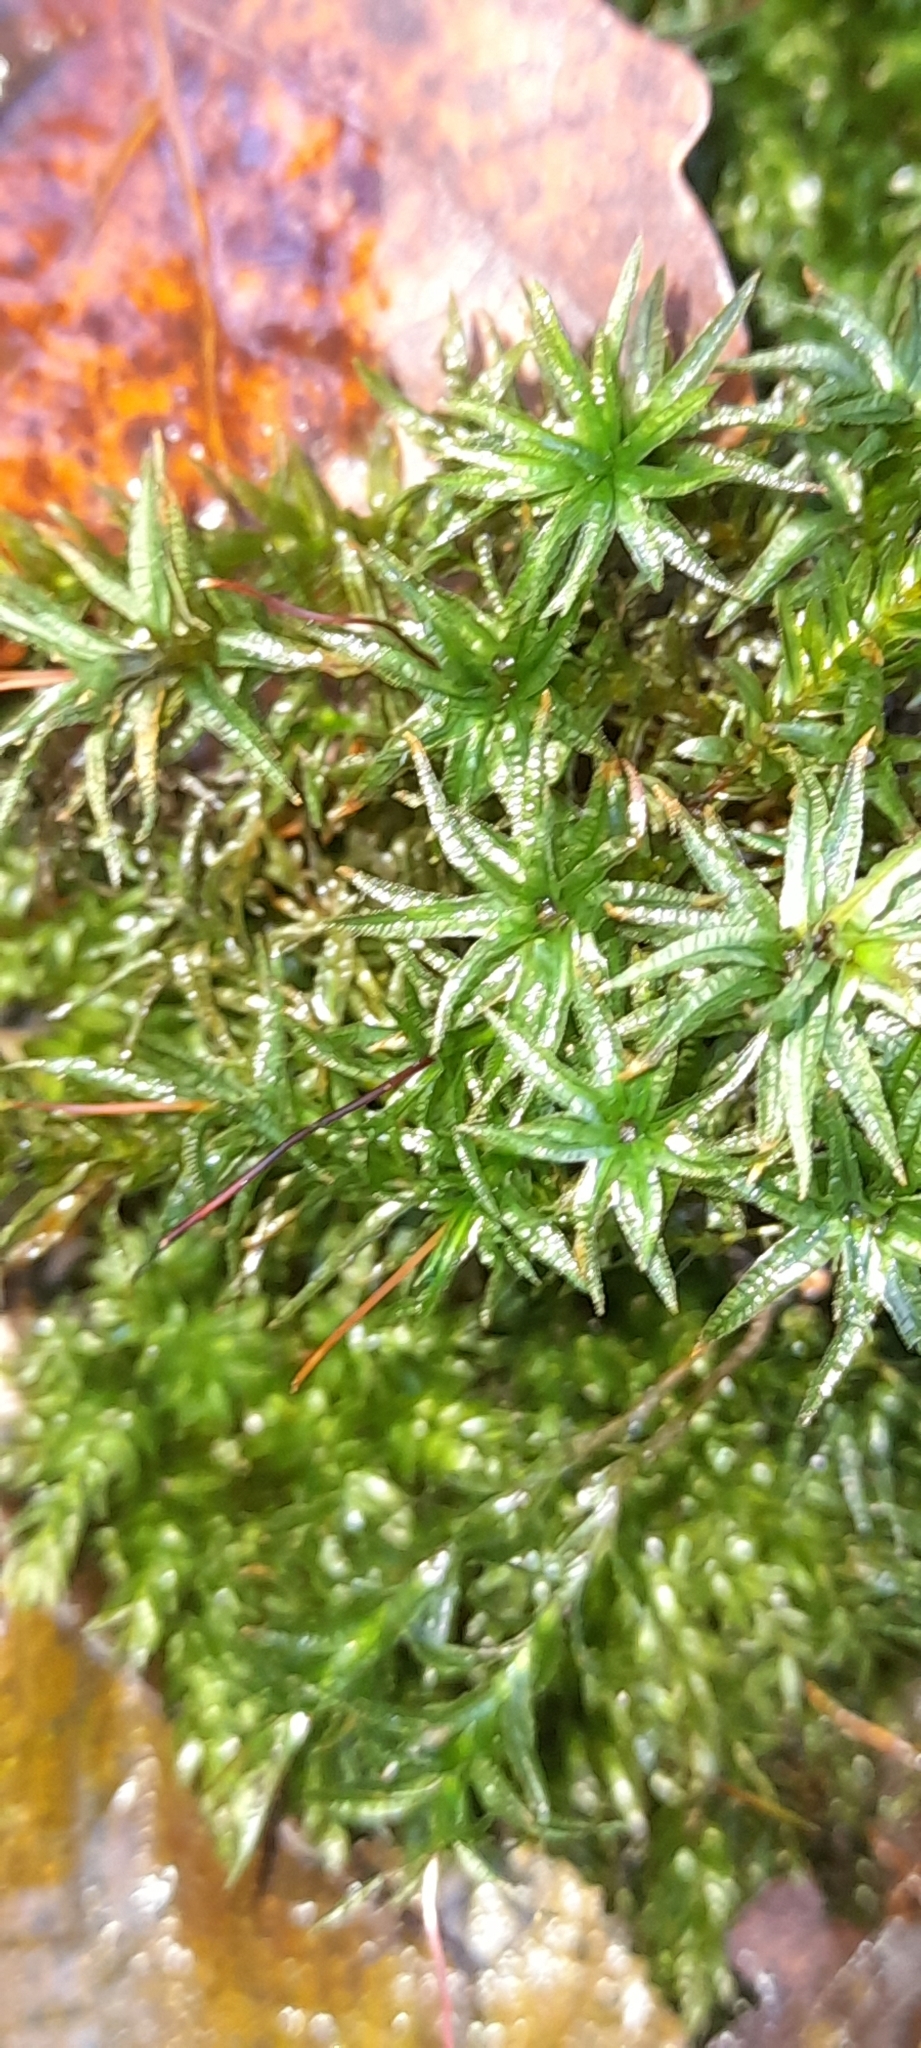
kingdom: Plantae
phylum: Bryophyta
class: Polytrichopsida
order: Polytrichales
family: Polytrichaceae
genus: Atrichum
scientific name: Atrichum undulatum
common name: Common smoothcap
